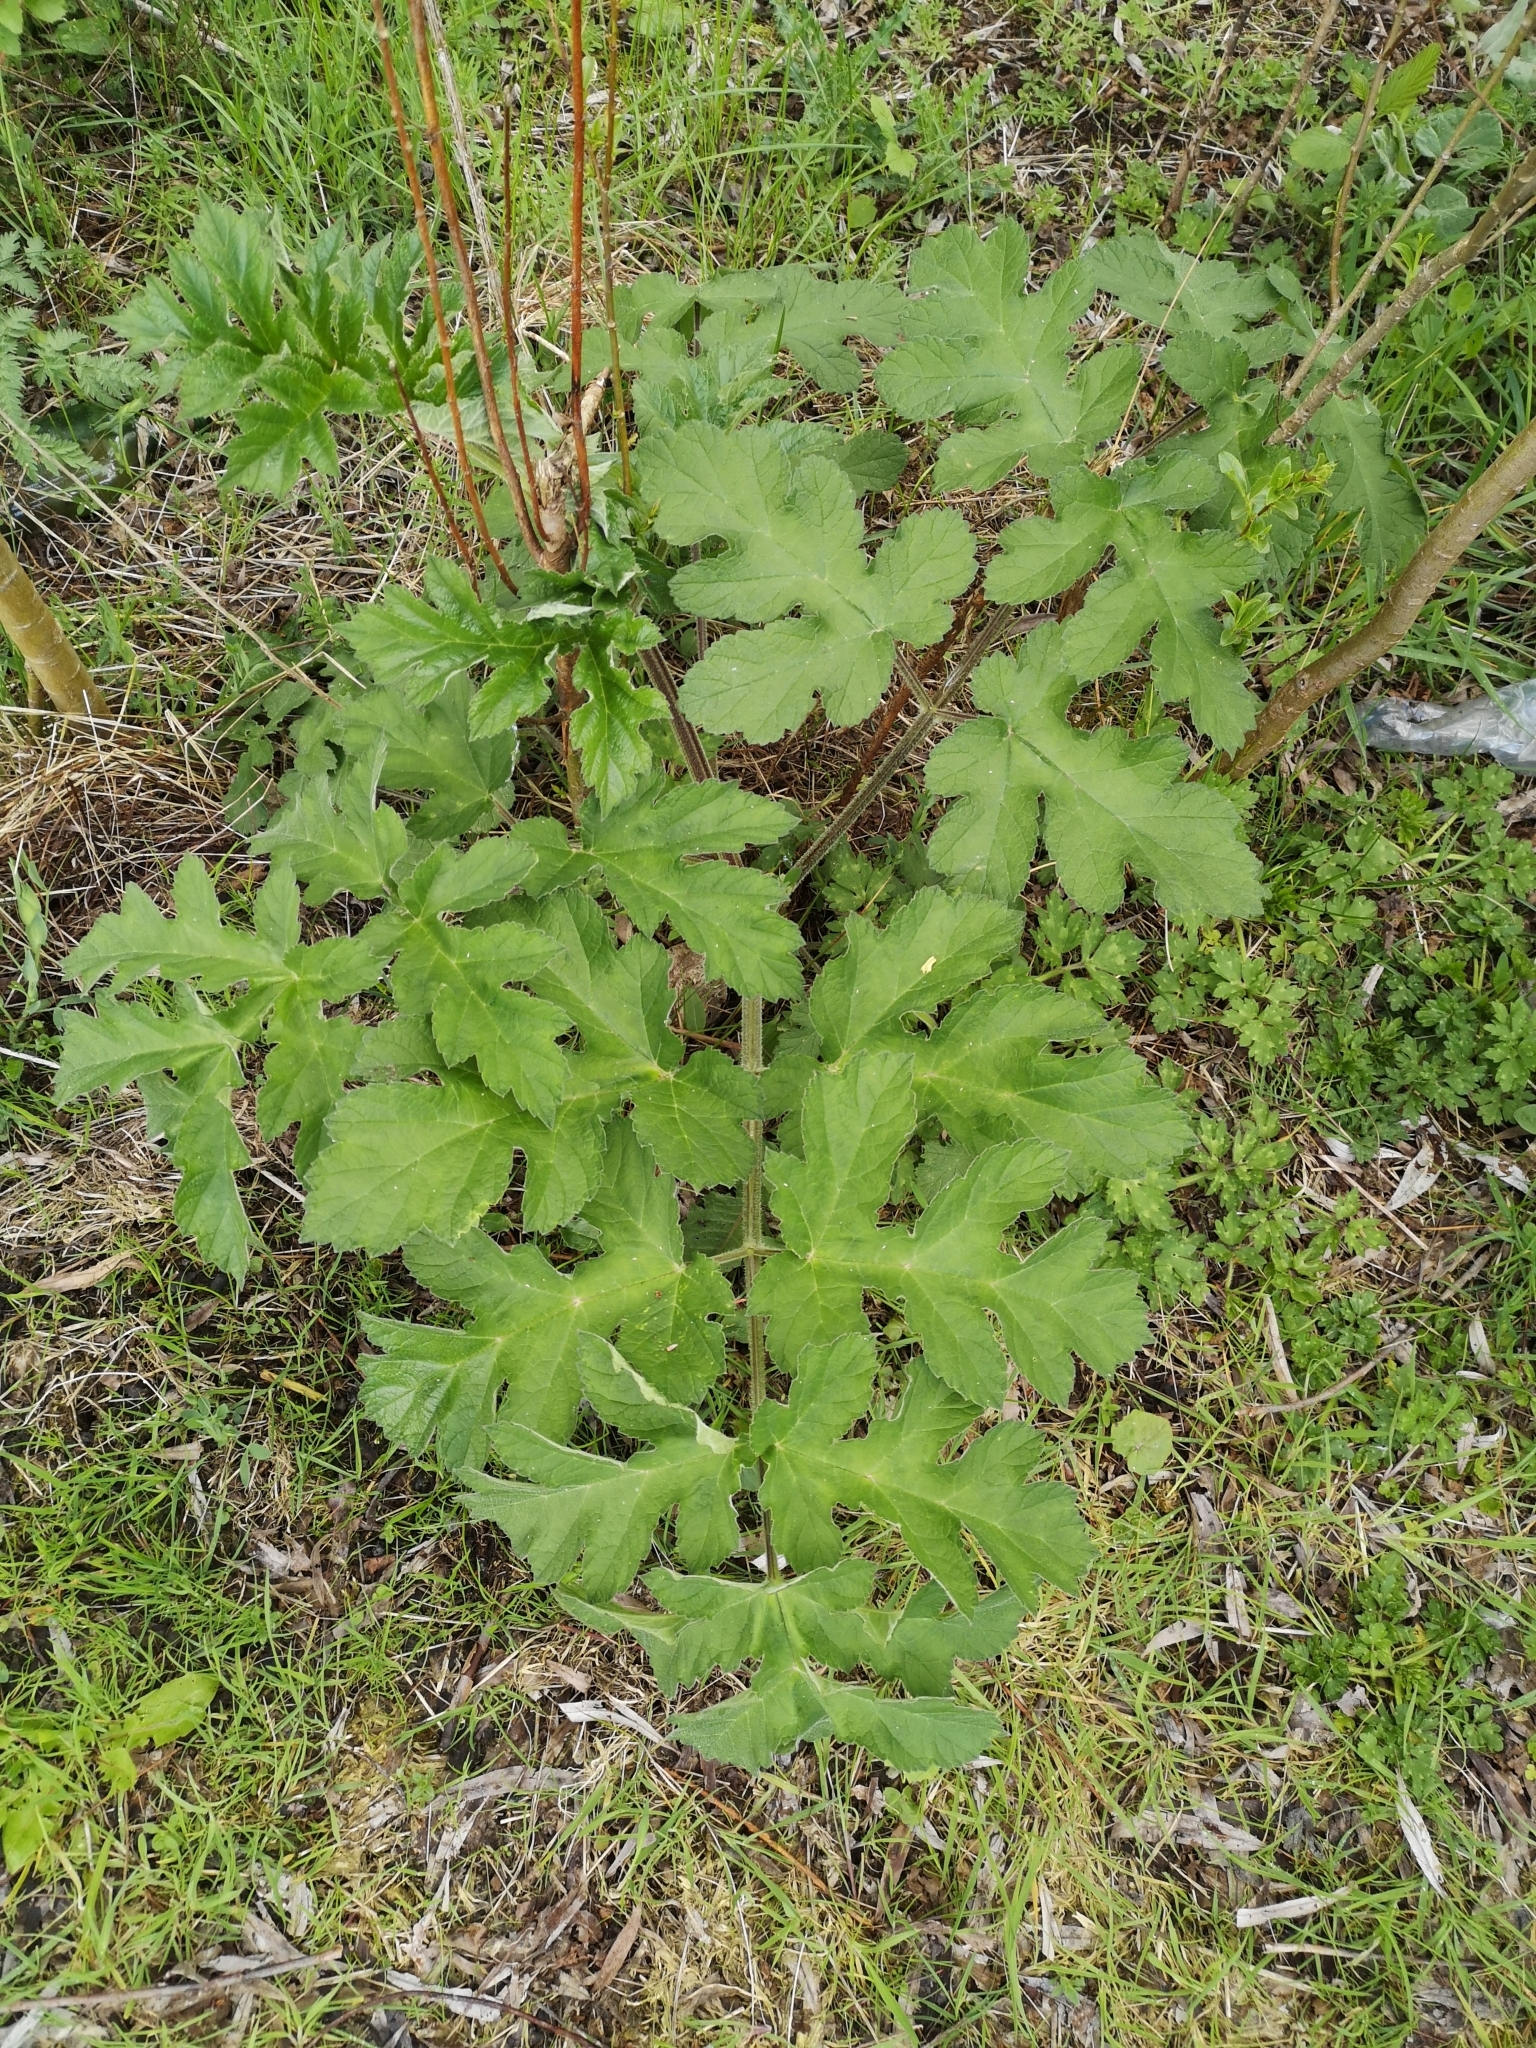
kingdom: Plantae
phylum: Tracheophyta
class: Magnoliopsida
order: Apiales
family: Apiaceae
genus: Heracleum
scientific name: Heracleum sphondylium
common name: Hogweed
